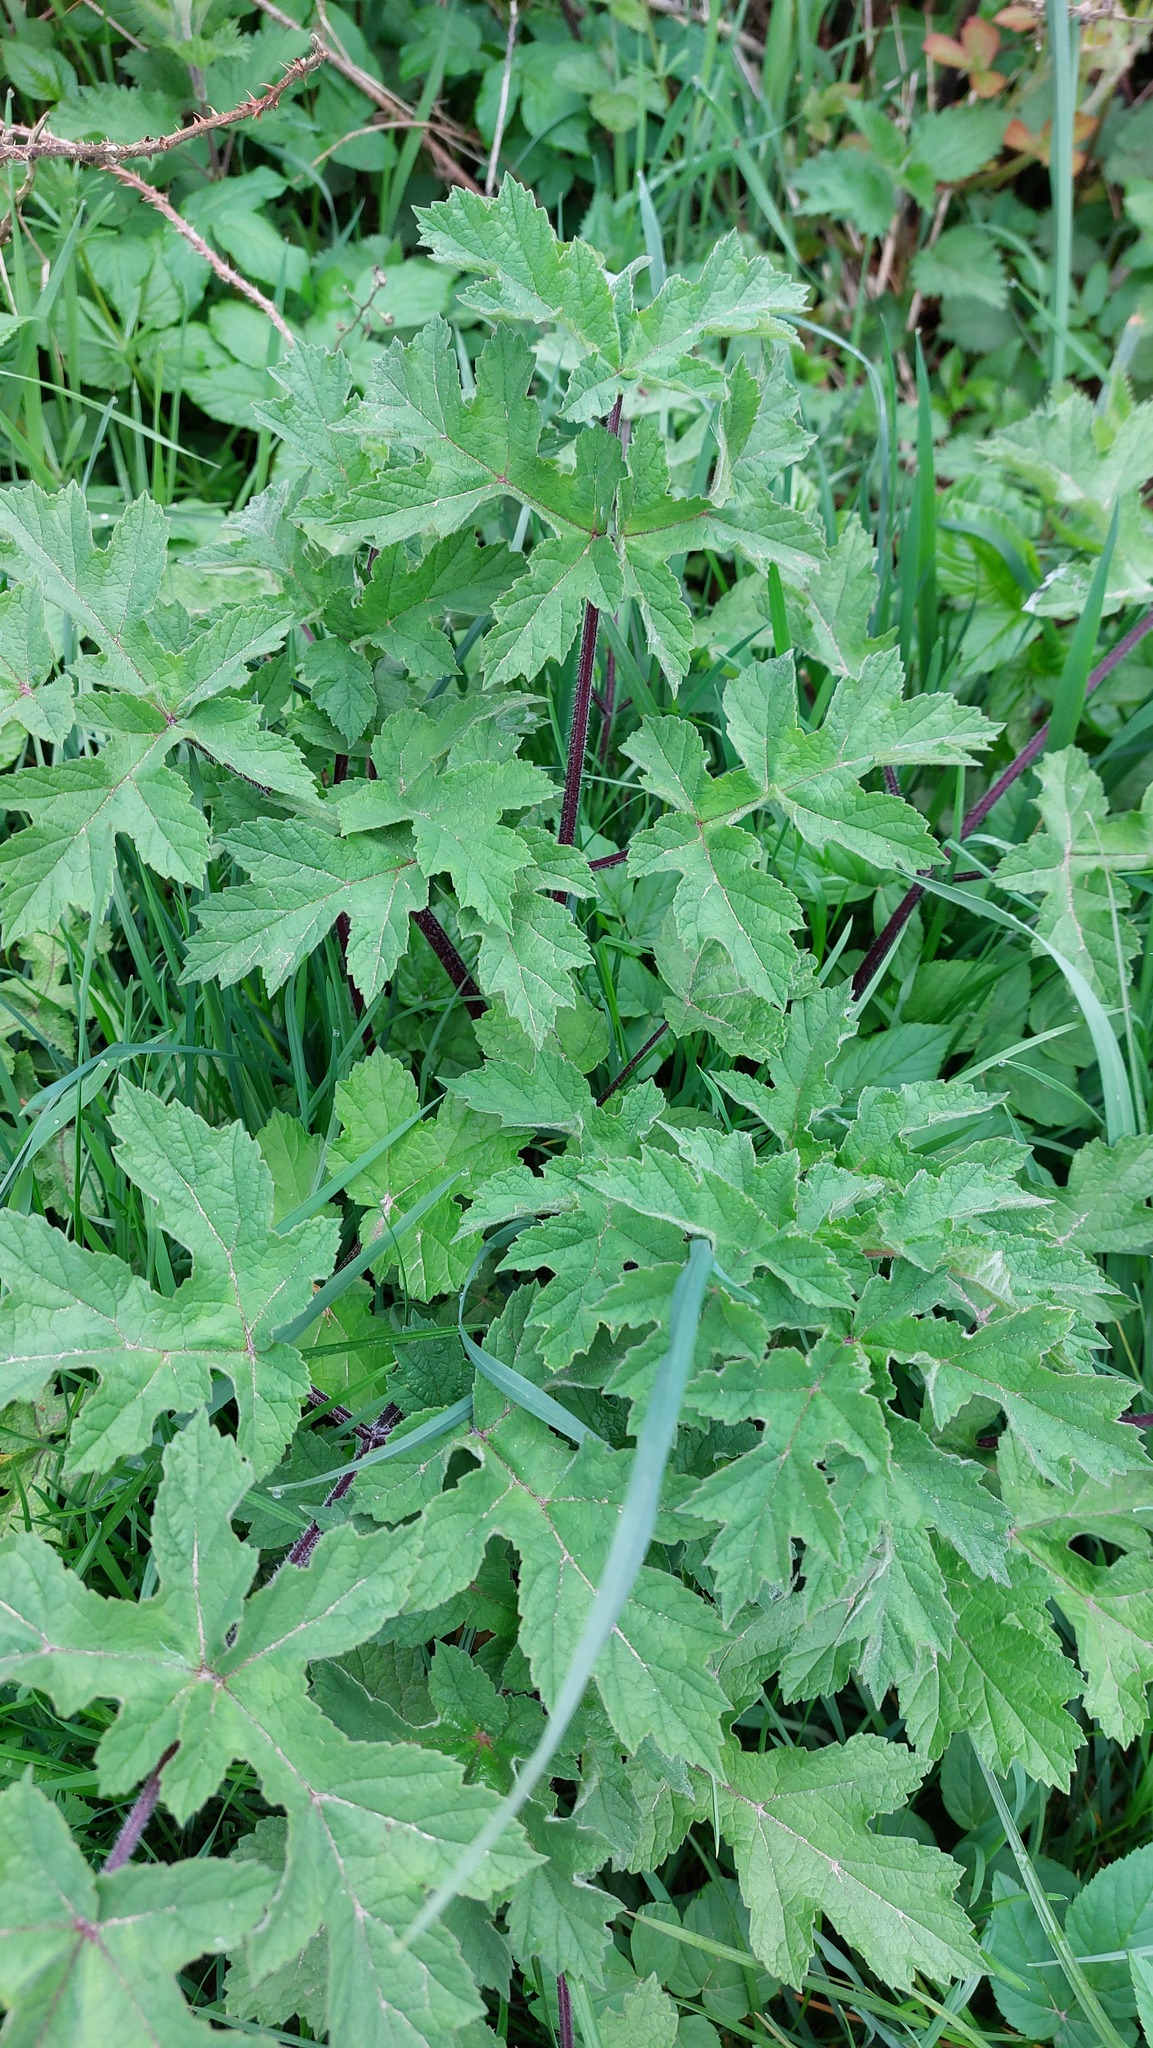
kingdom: Plantae
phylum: Tracheophyta
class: Magnoliopsida
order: Apiales
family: Apiaceae
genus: Heracleum
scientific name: Heracleum sphondylium
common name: Hogweed
